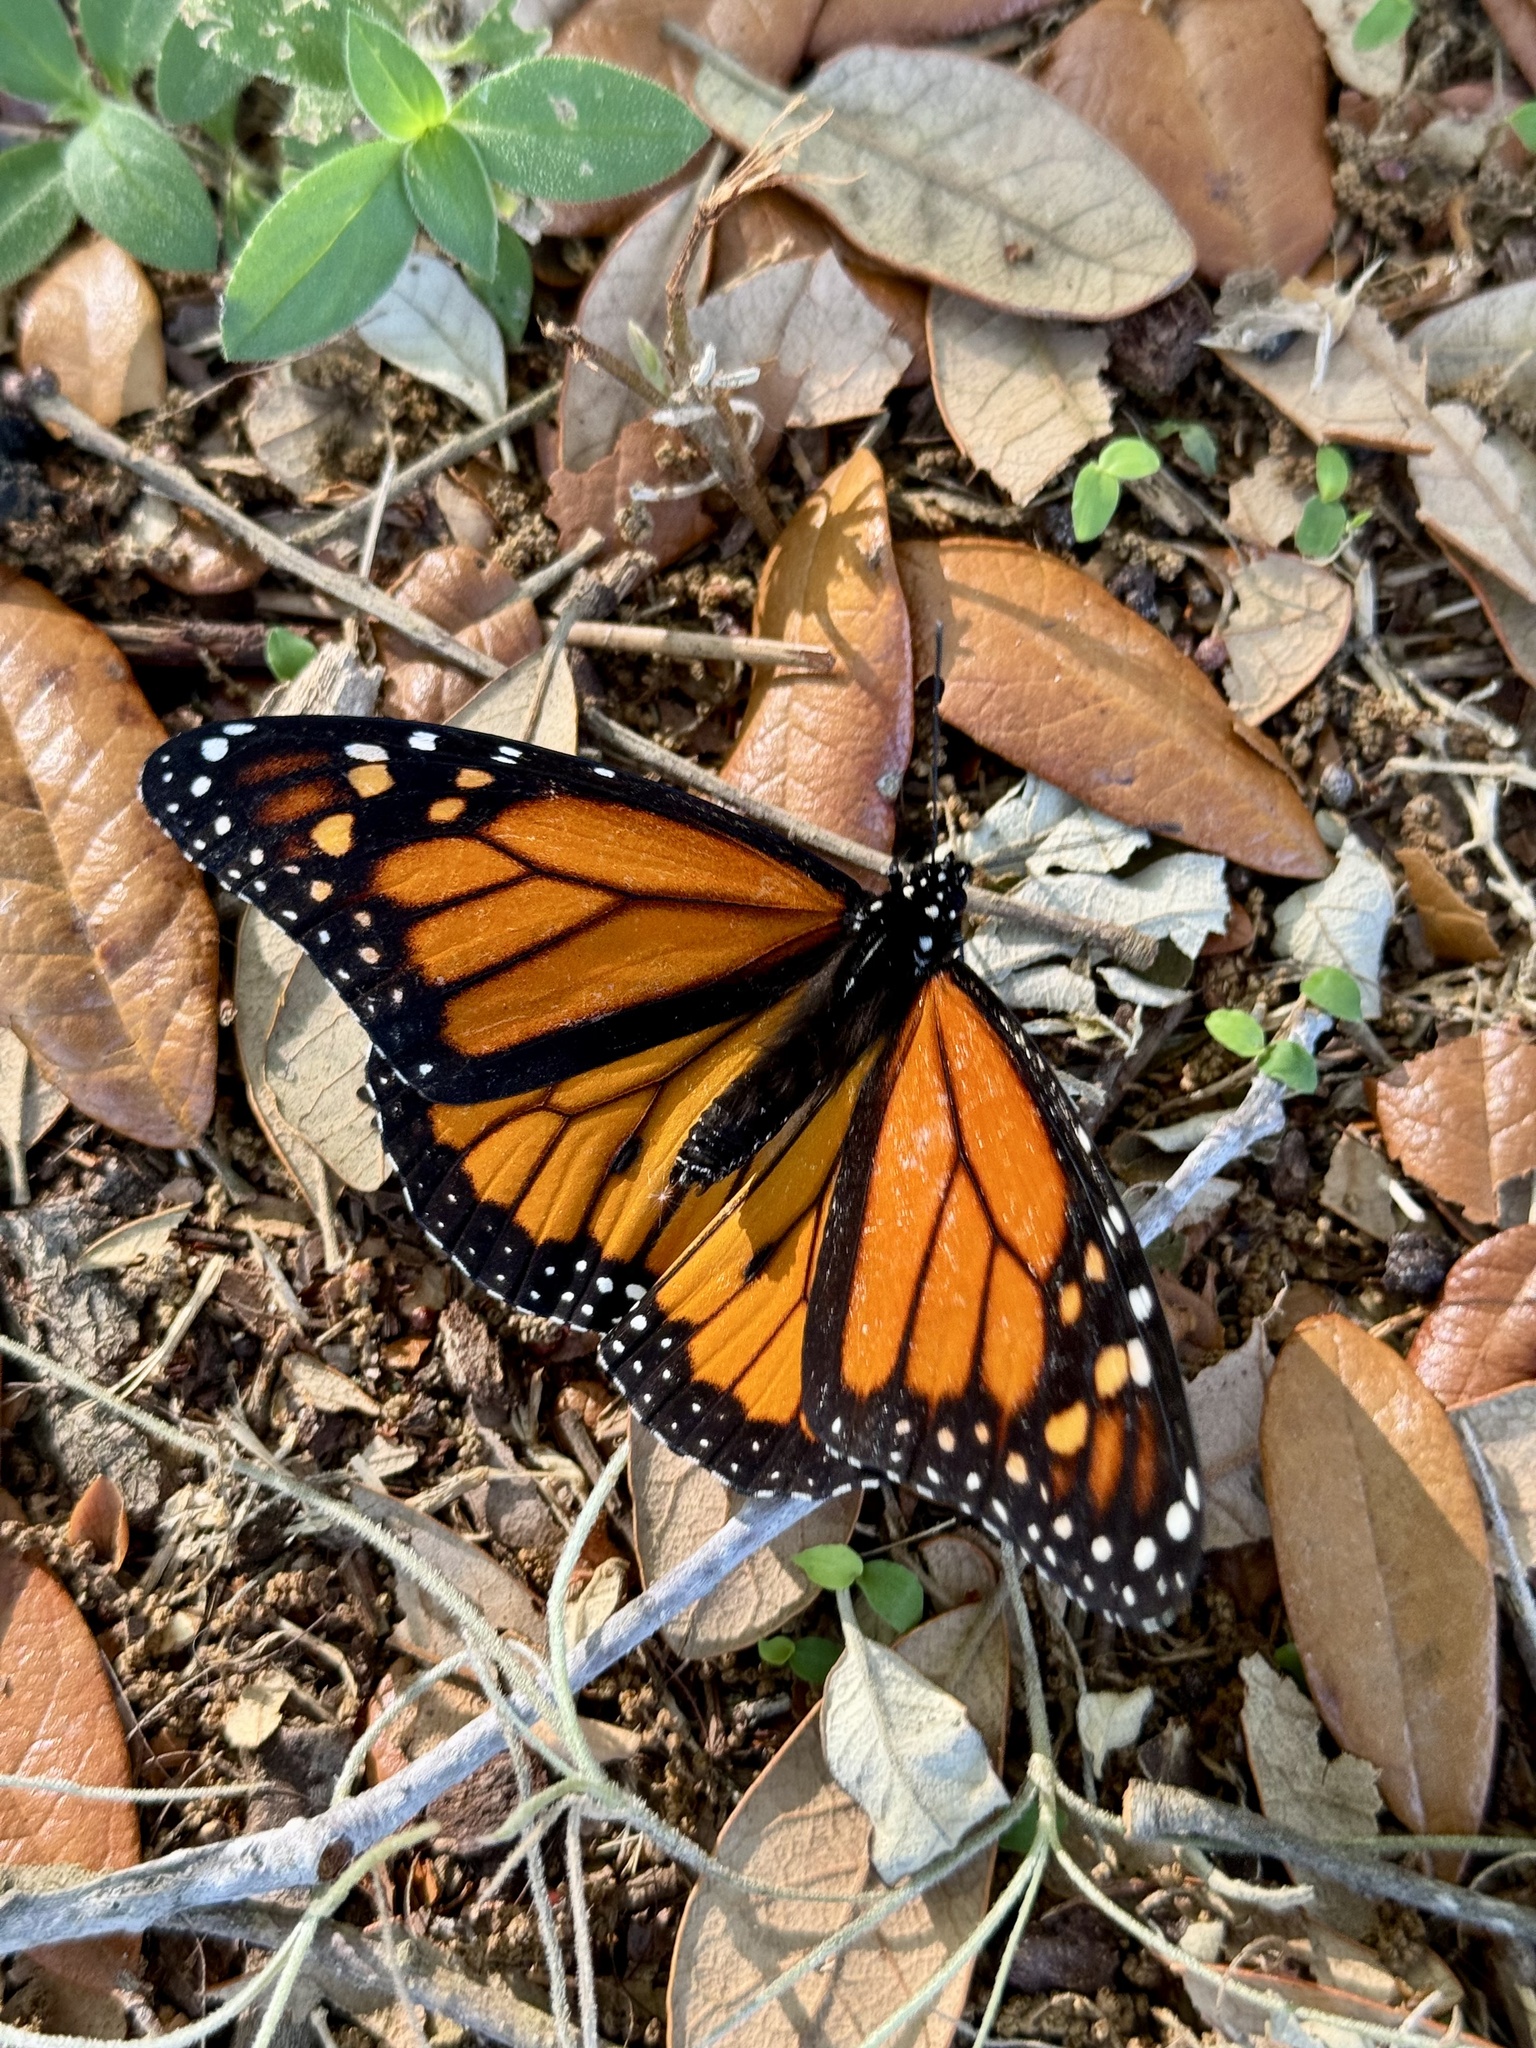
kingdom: Animalia
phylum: Arthropoda
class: Insecta
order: Lepidoptera
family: Nymphalidae
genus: Danaus
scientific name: Danaus plexippus
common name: Monarch
